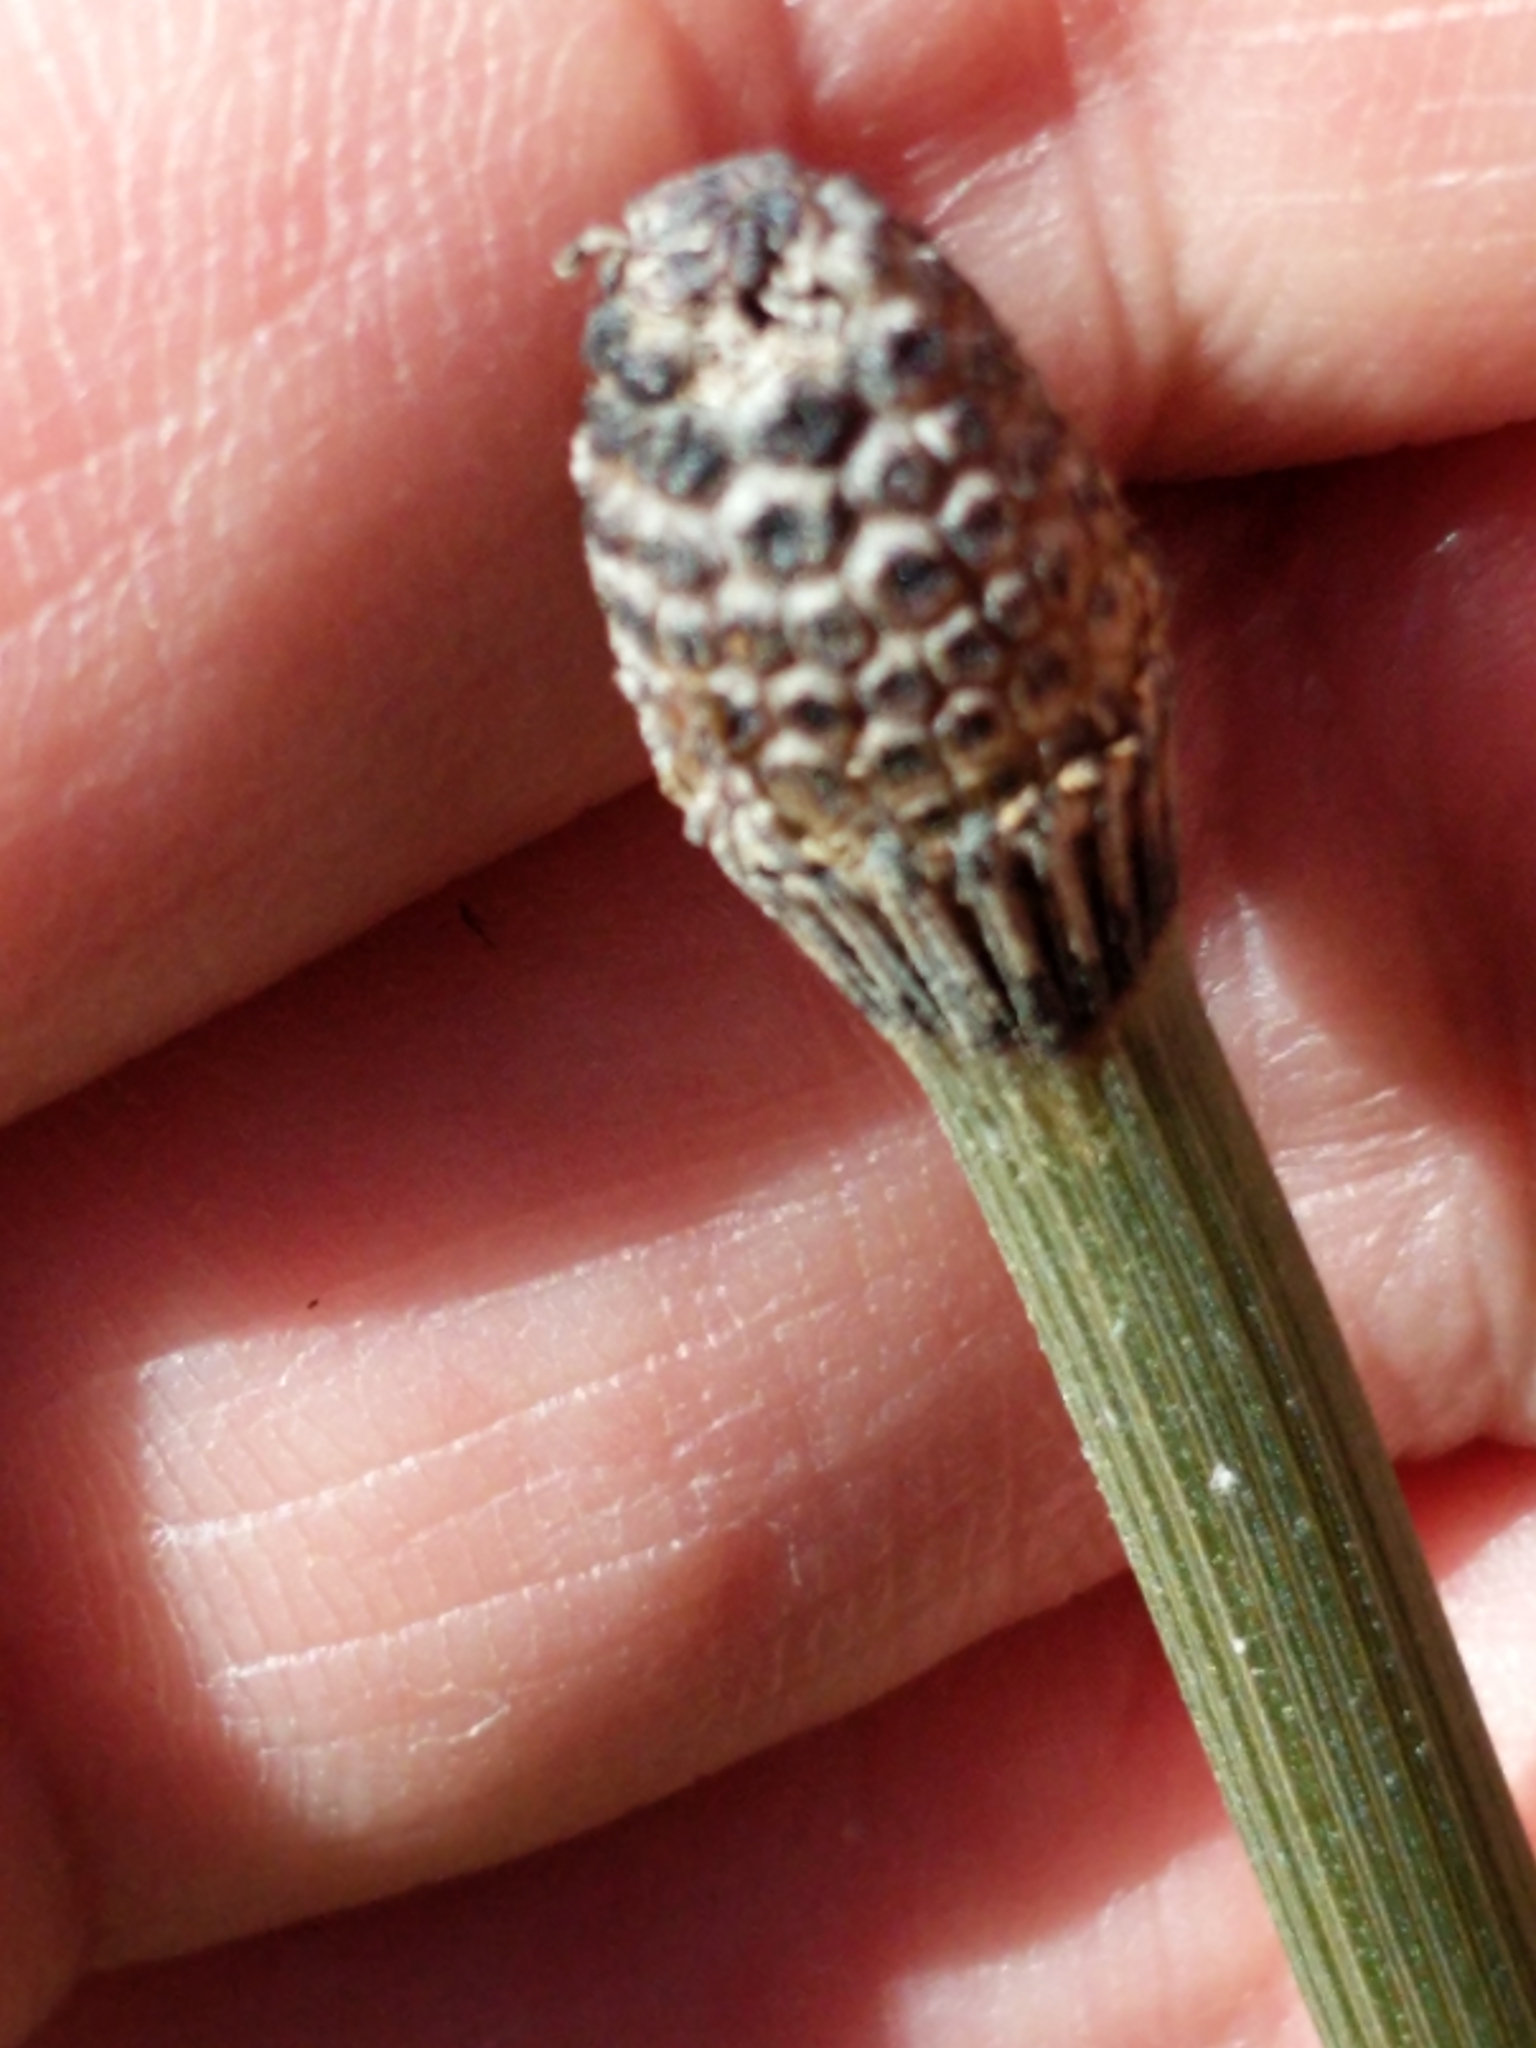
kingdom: Plantae
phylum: Tracheophyta
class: Polypodiopsida
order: Equisetales
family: Equisetaceae
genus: Equisetum
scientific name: Equisetum praealtum
